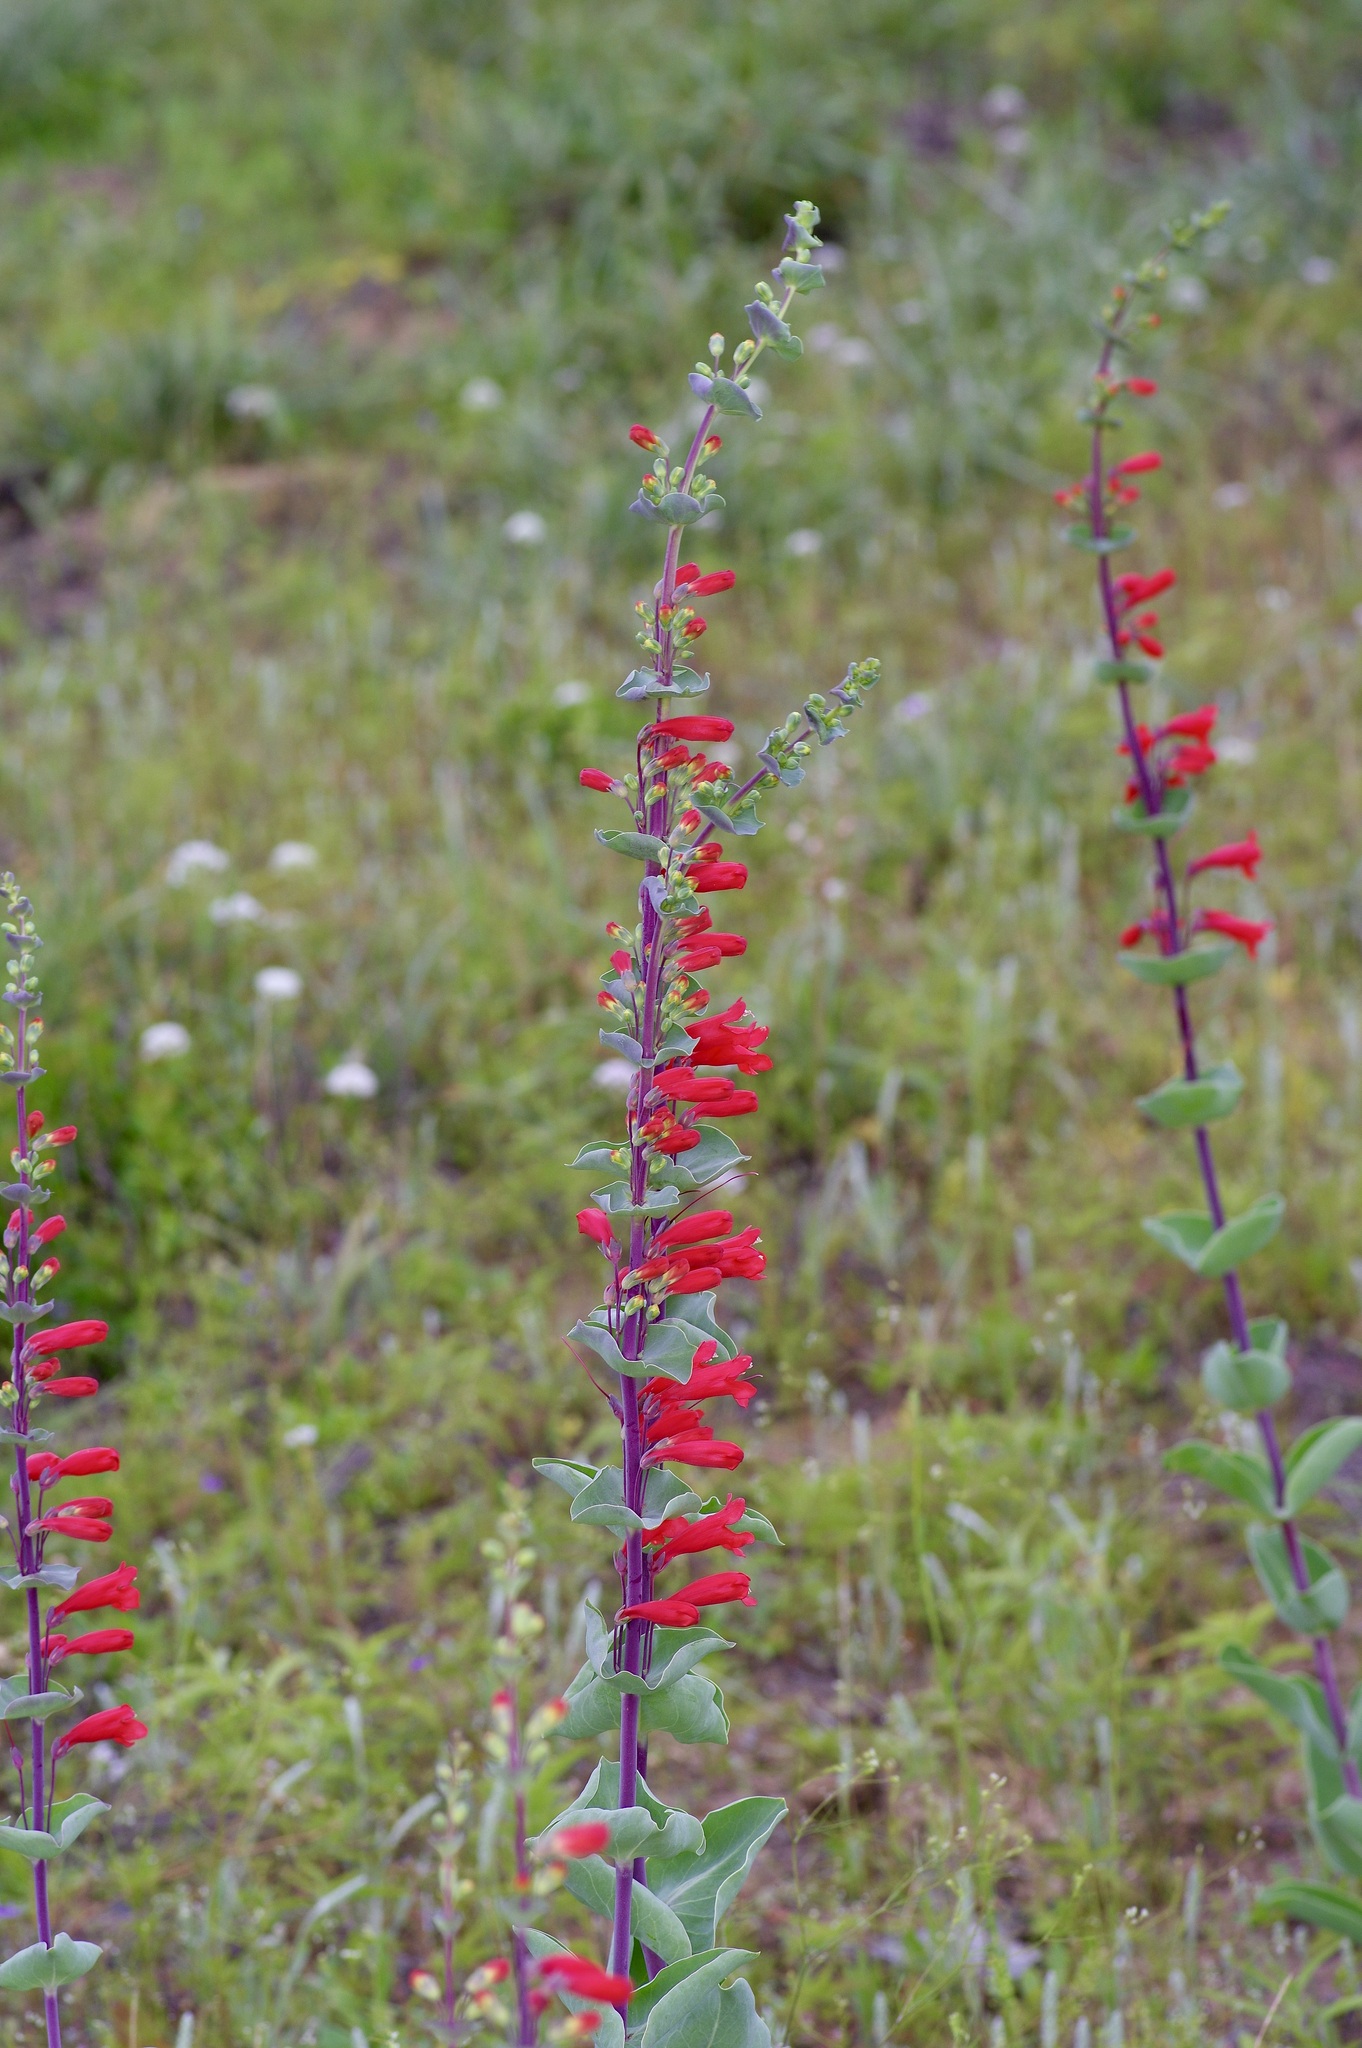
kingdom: Plantae
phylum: Tracheophyta
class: Magnoliopsida
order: Lamiales
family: Plantaginaceae
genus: Penstemon
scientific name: Penstemon murrayanus
